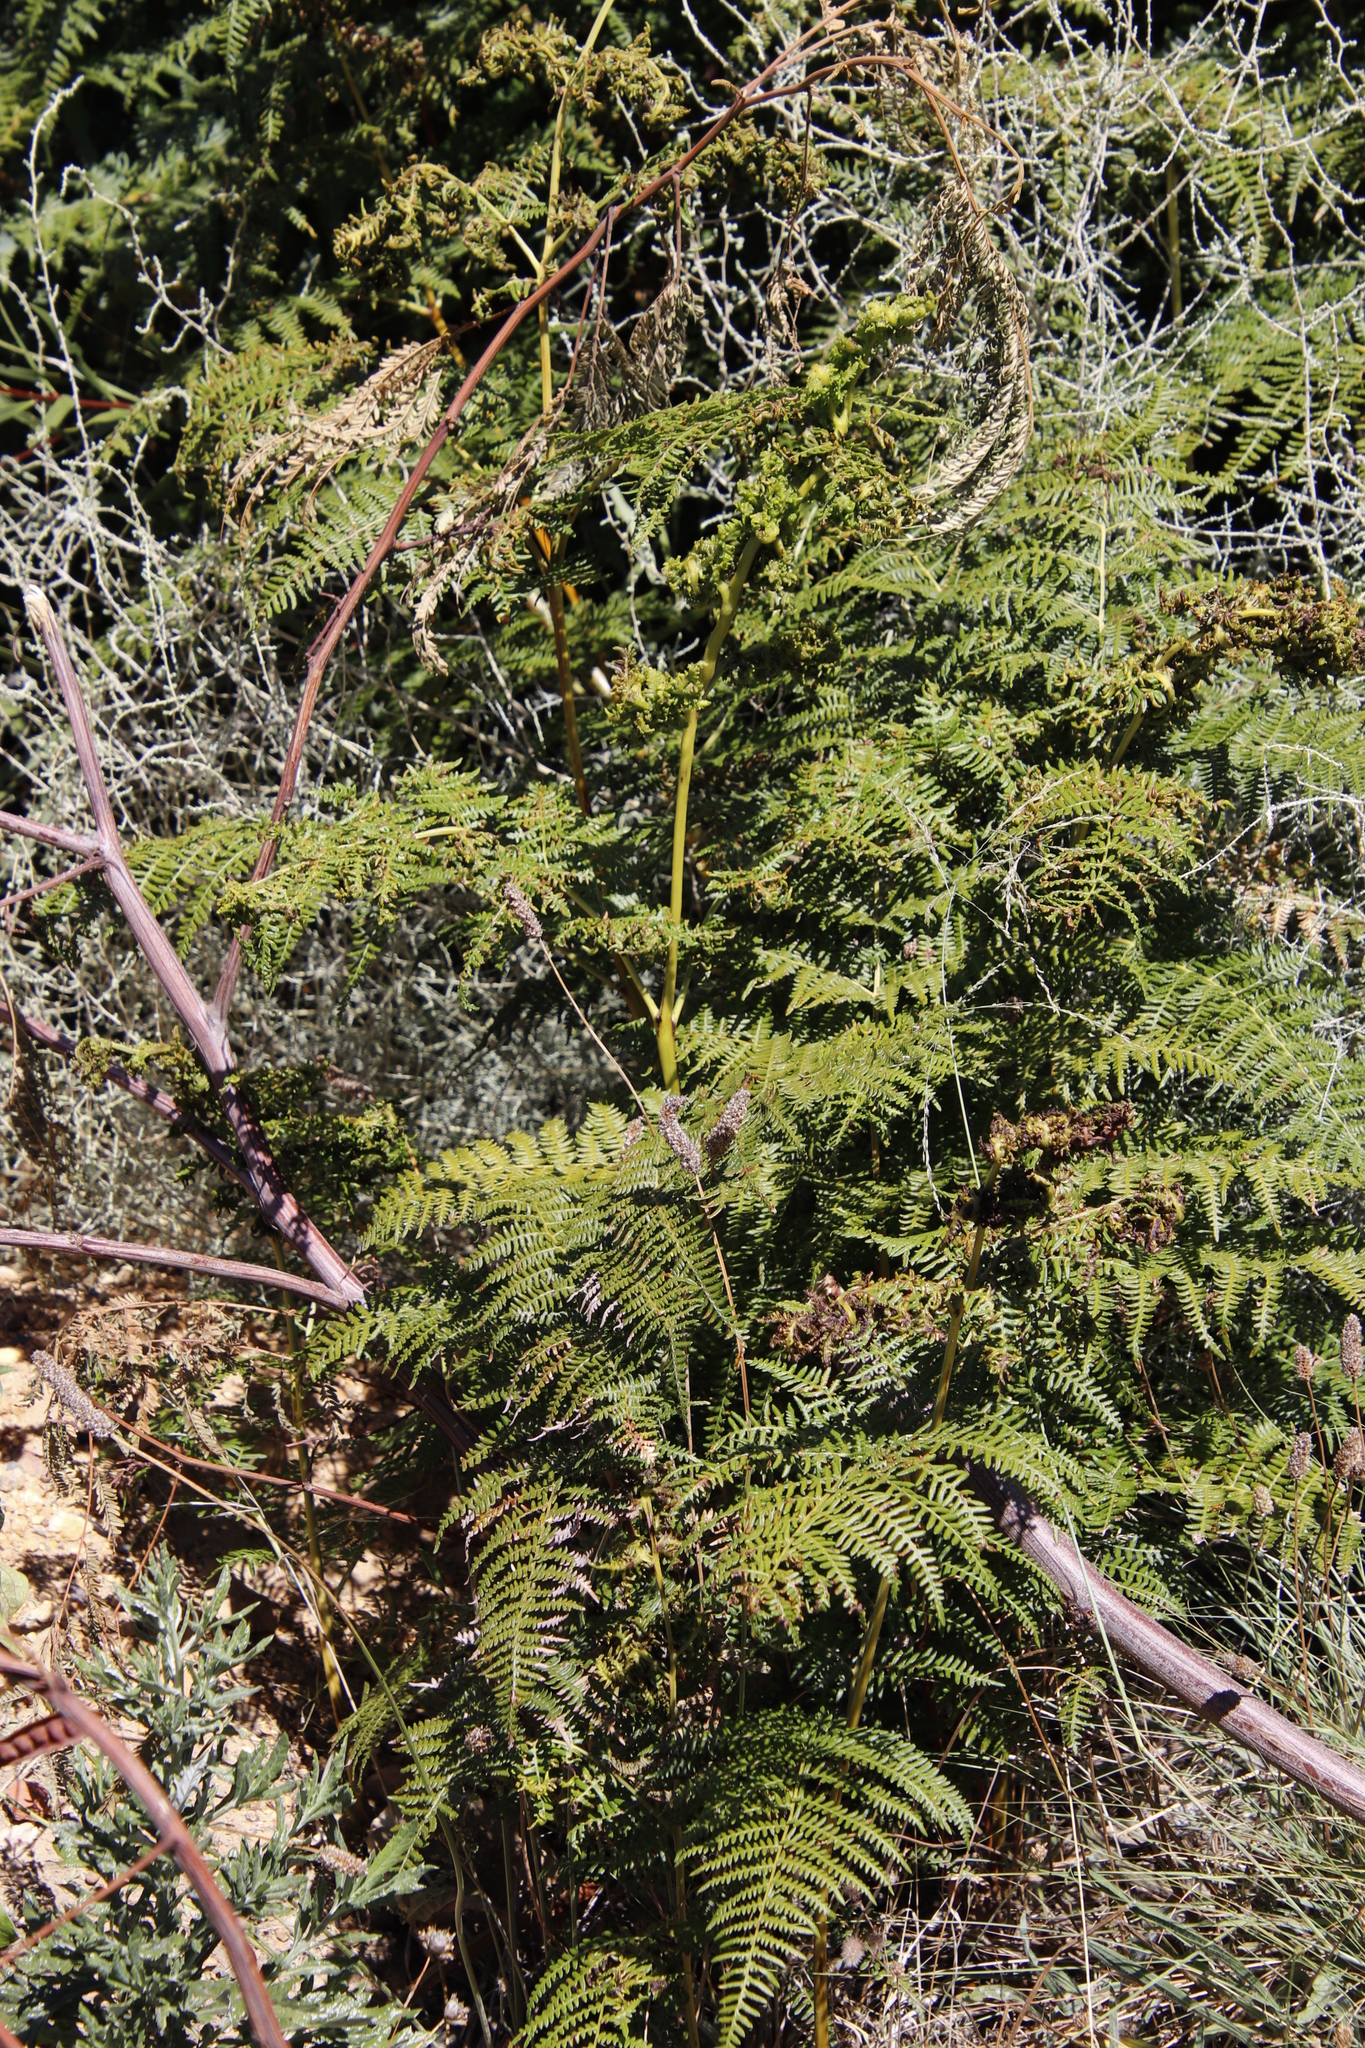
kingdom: Plantae
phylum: Tracheophyta
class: Polypodiopsida
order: Polypodiales
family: Dennstaedtiaceae
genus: Pteridium
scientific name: Pteridium aquilinum
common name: Bracken
